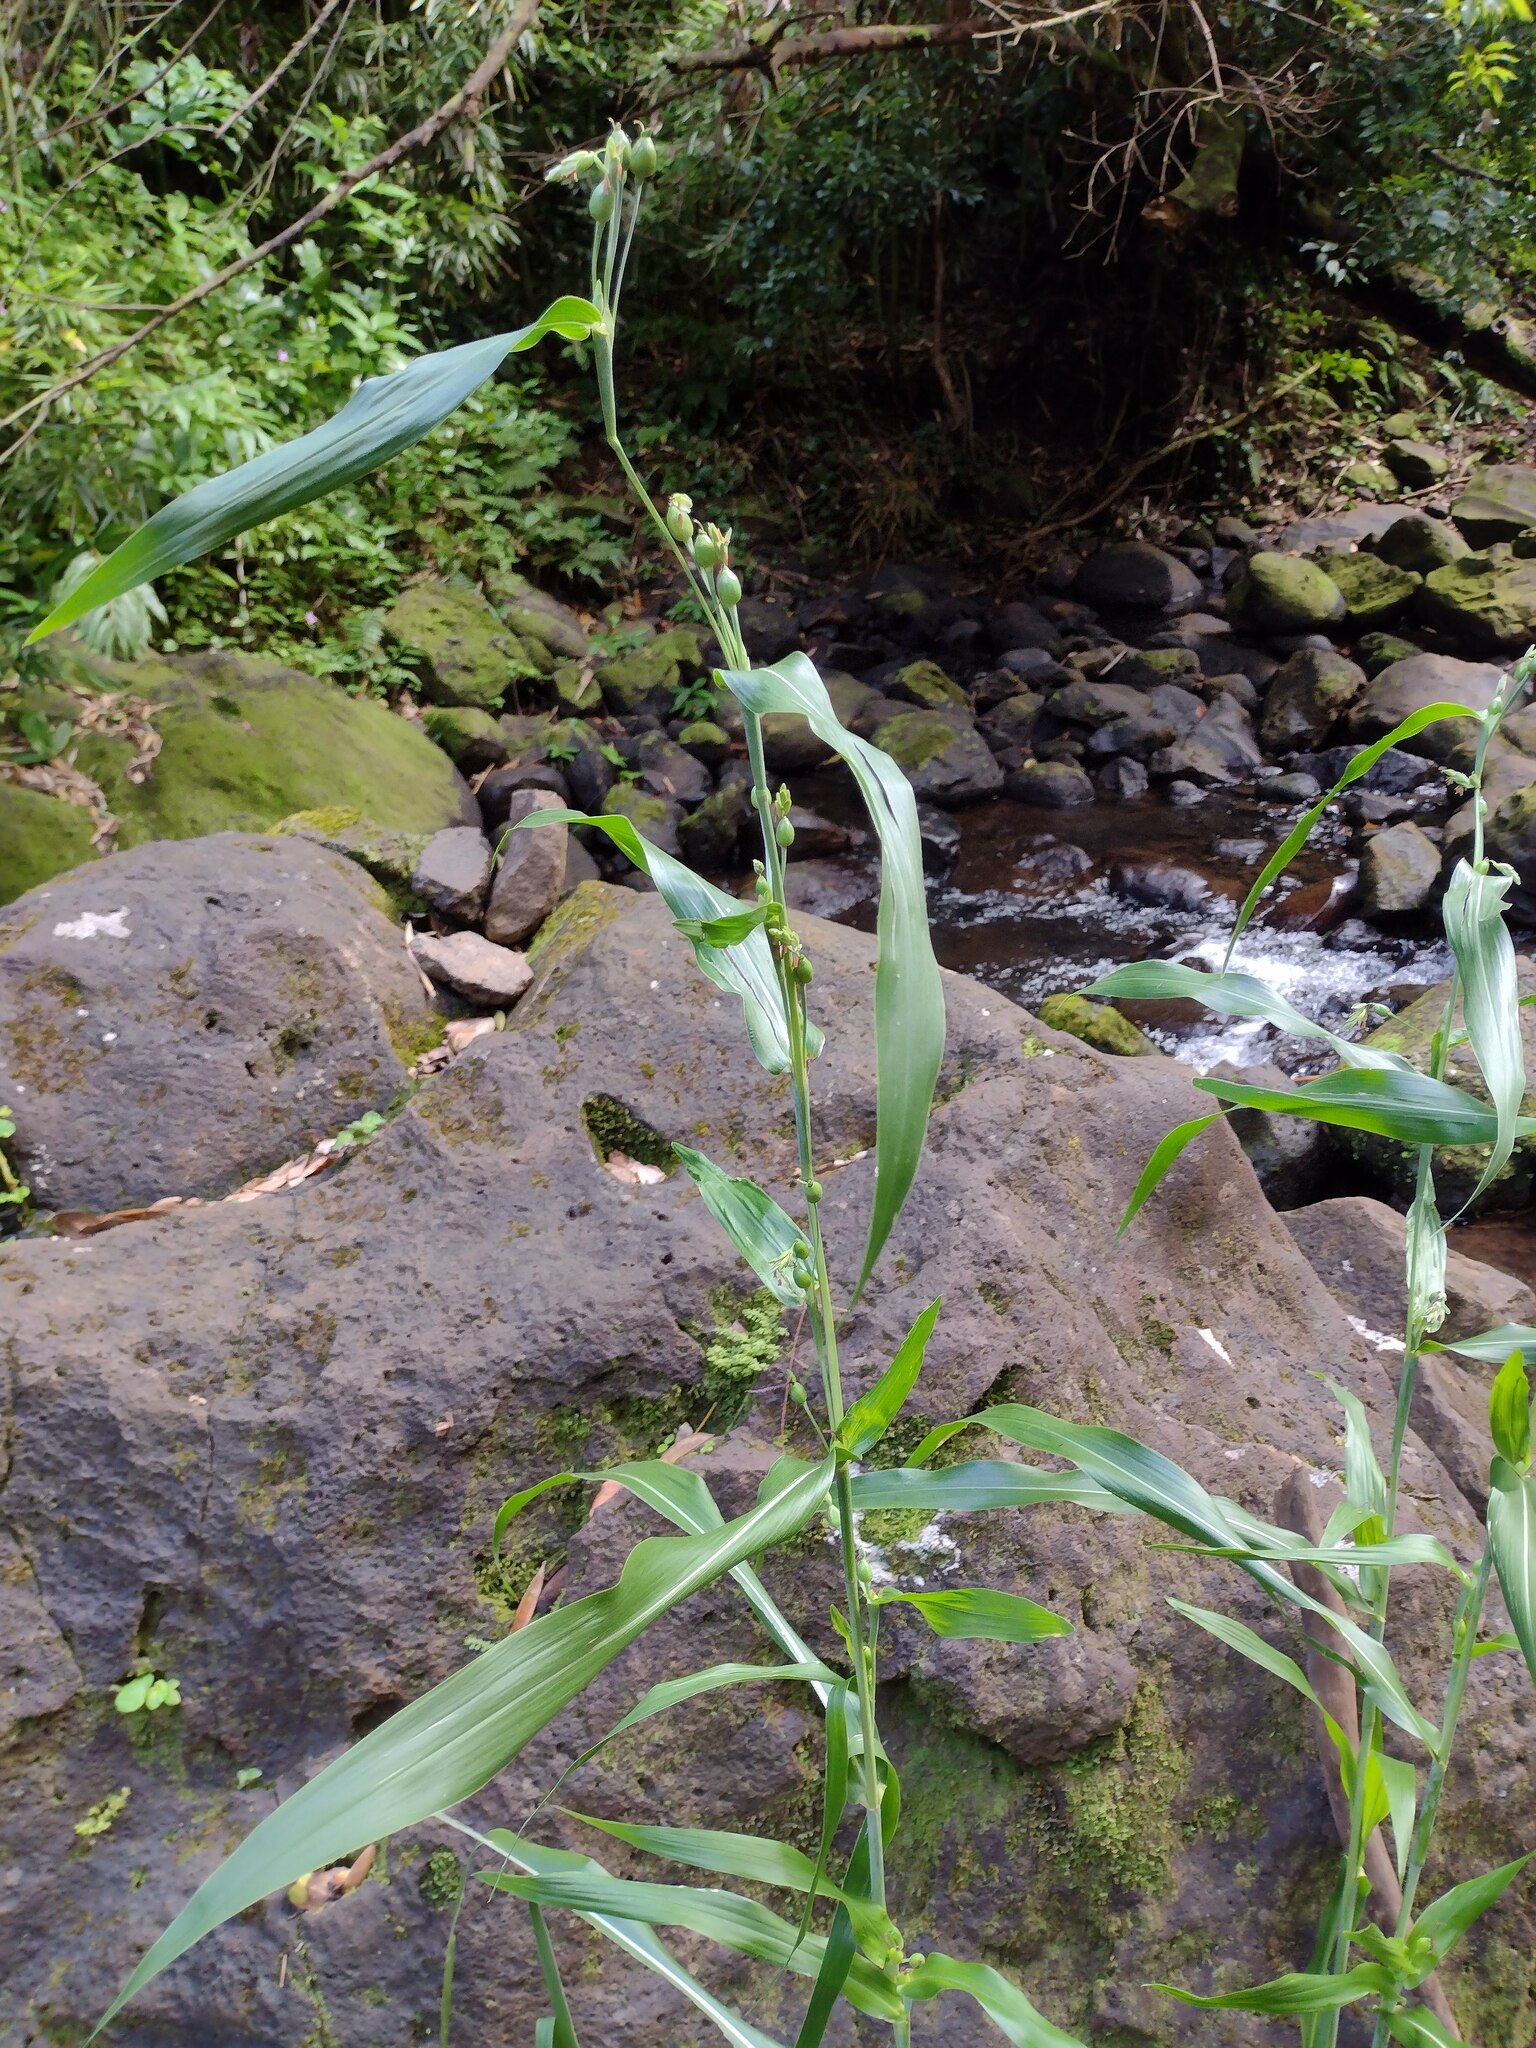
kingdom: Plantae
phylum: Tracheophyta
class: Liliopsida
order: Poales
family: Poaceae
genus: Coix
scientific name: Coix lacryma-jobi
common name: Job's tears
